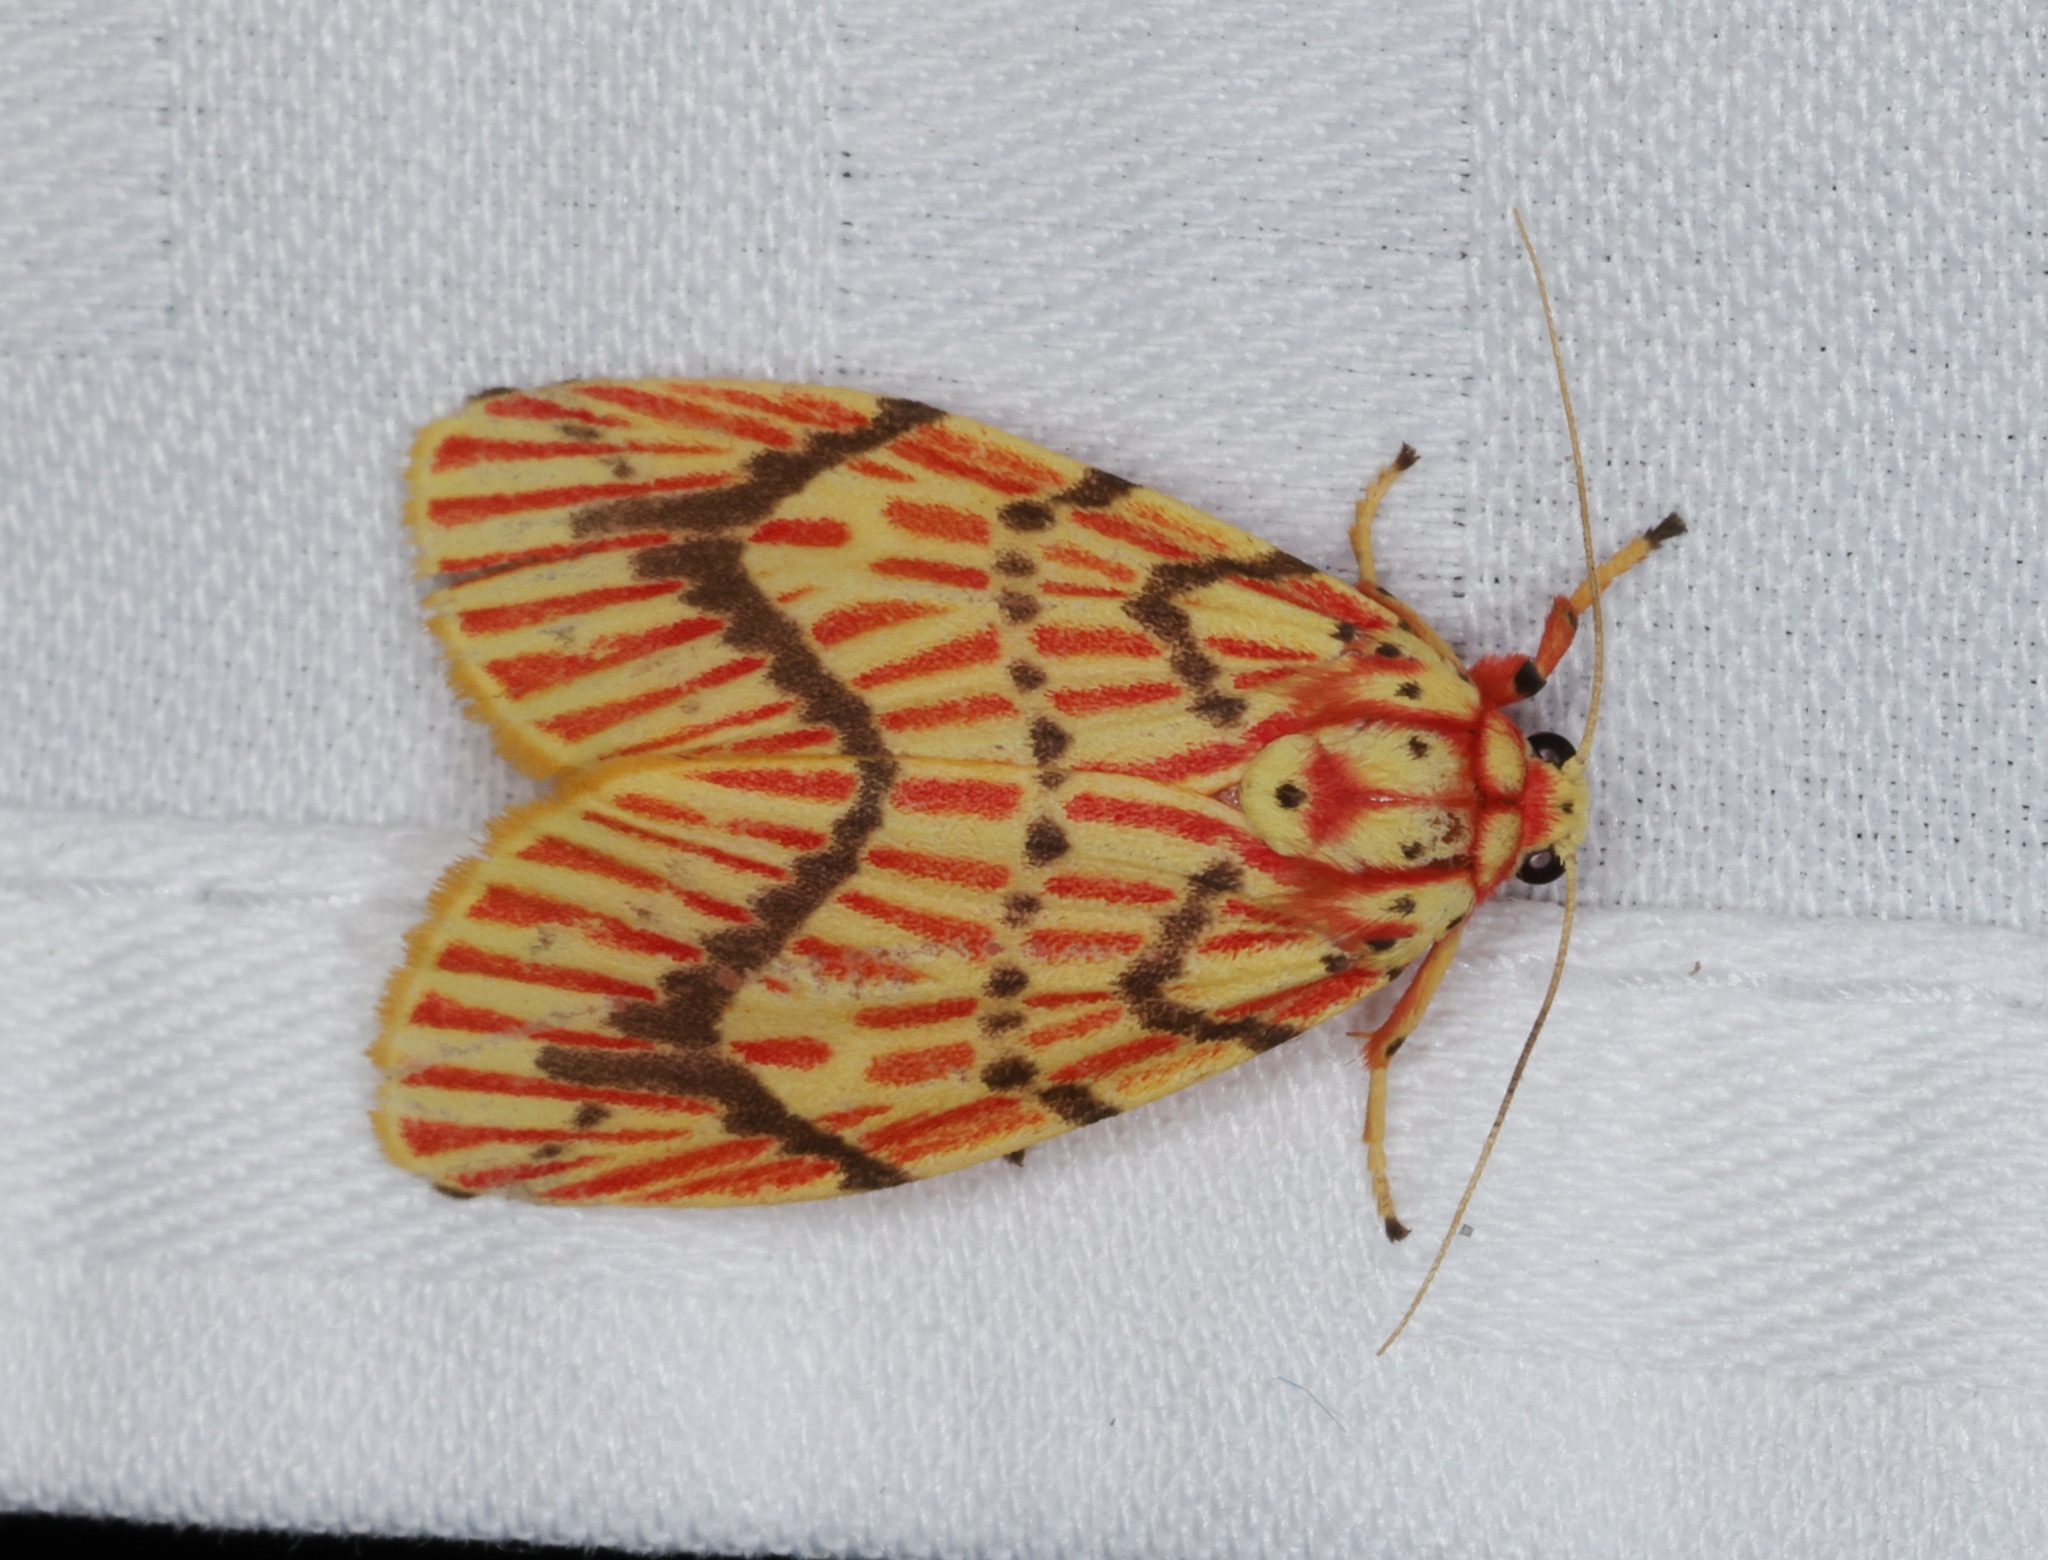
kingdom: Animalia
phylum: Arthropoda
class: Insecta
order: Lepidoptera
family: Erebidae
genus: Barsine
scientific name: Barsine striata
